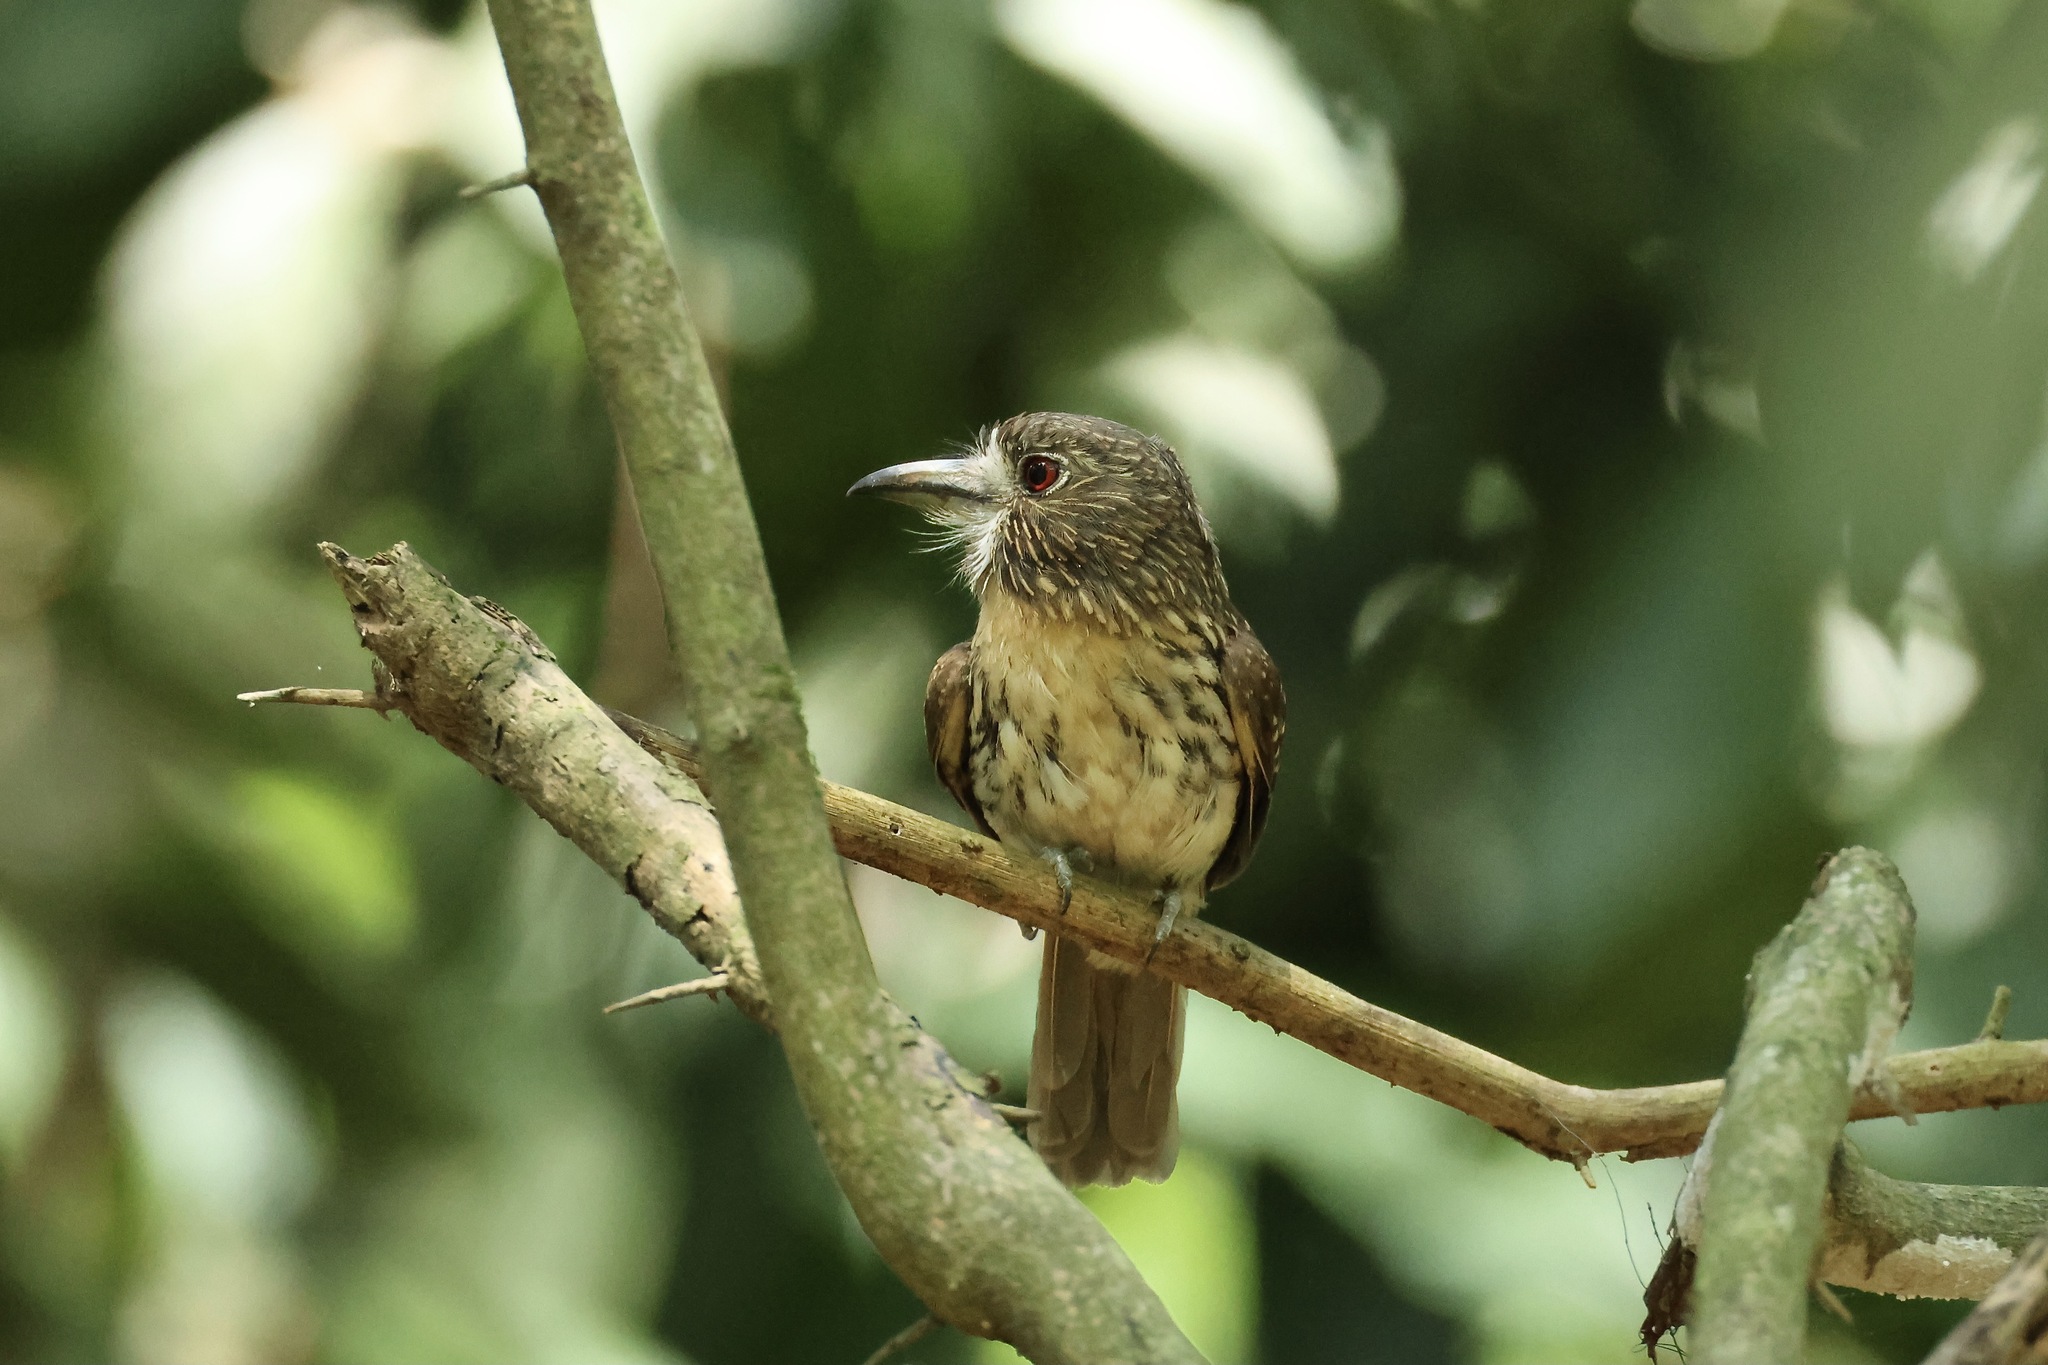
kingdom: Animalia
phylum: Chordata
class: Aves
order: Piciformes
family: Bucconidae
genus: Malacoptila
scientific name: Malacoptila panamensis
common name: White-whiskered puffbird
